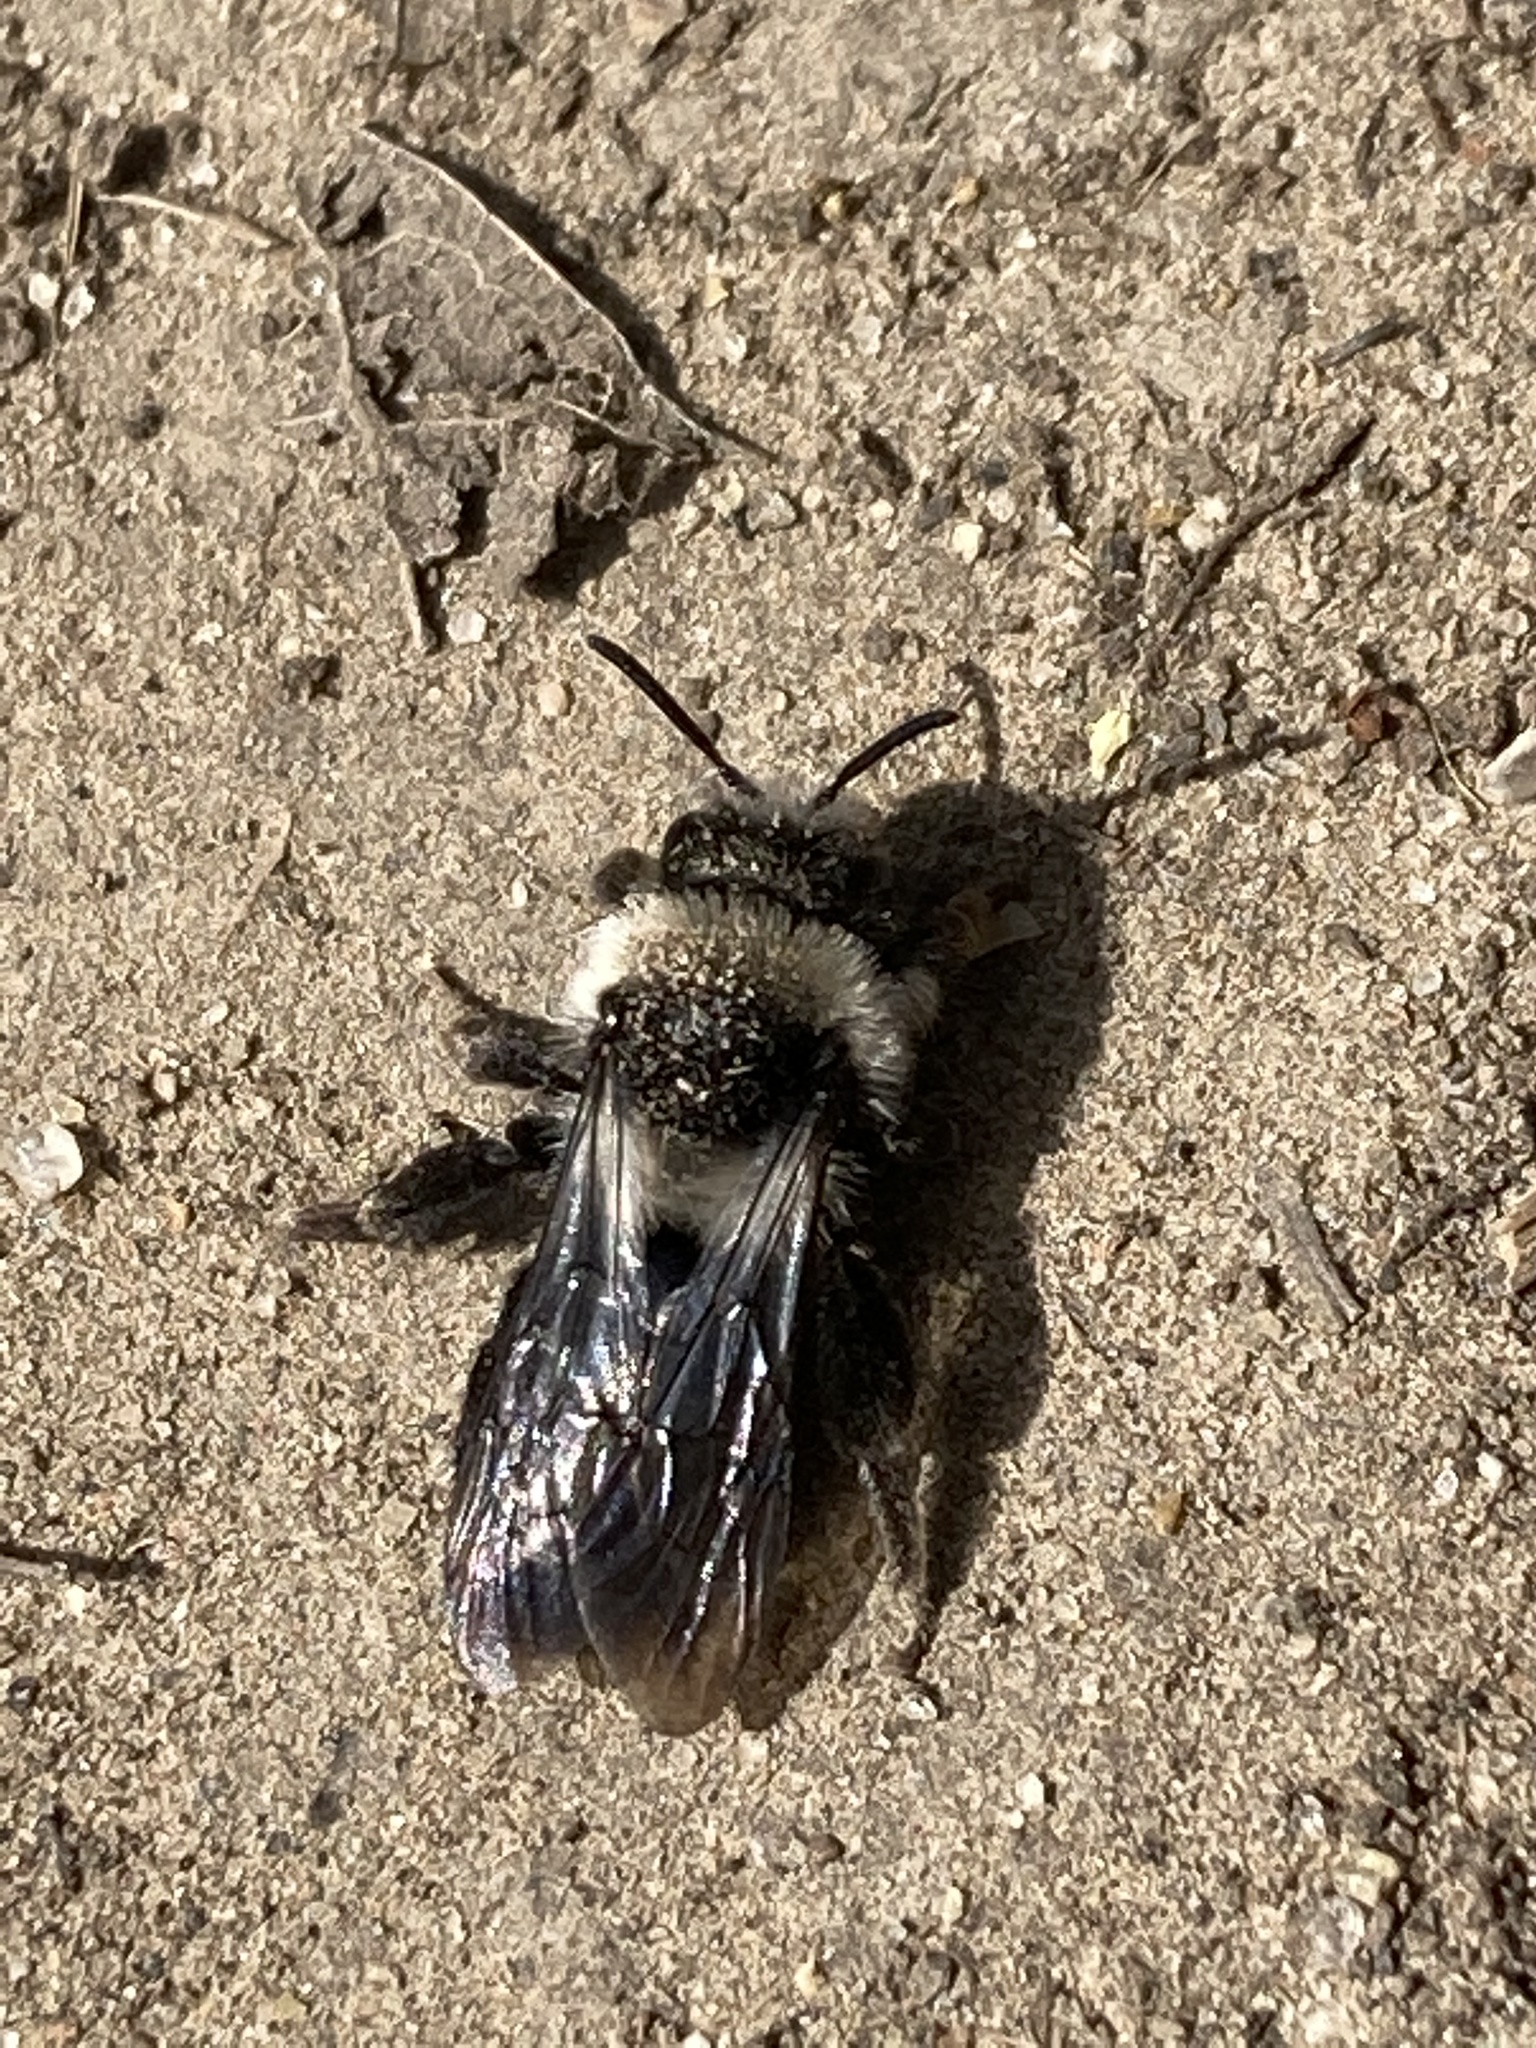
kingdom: Animalia
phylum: Arthropoda
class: Insecta
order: Hymenoptera
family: Andrenidae
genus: Andrena
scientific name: Andrena cineraria
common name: Ashy mining bee
